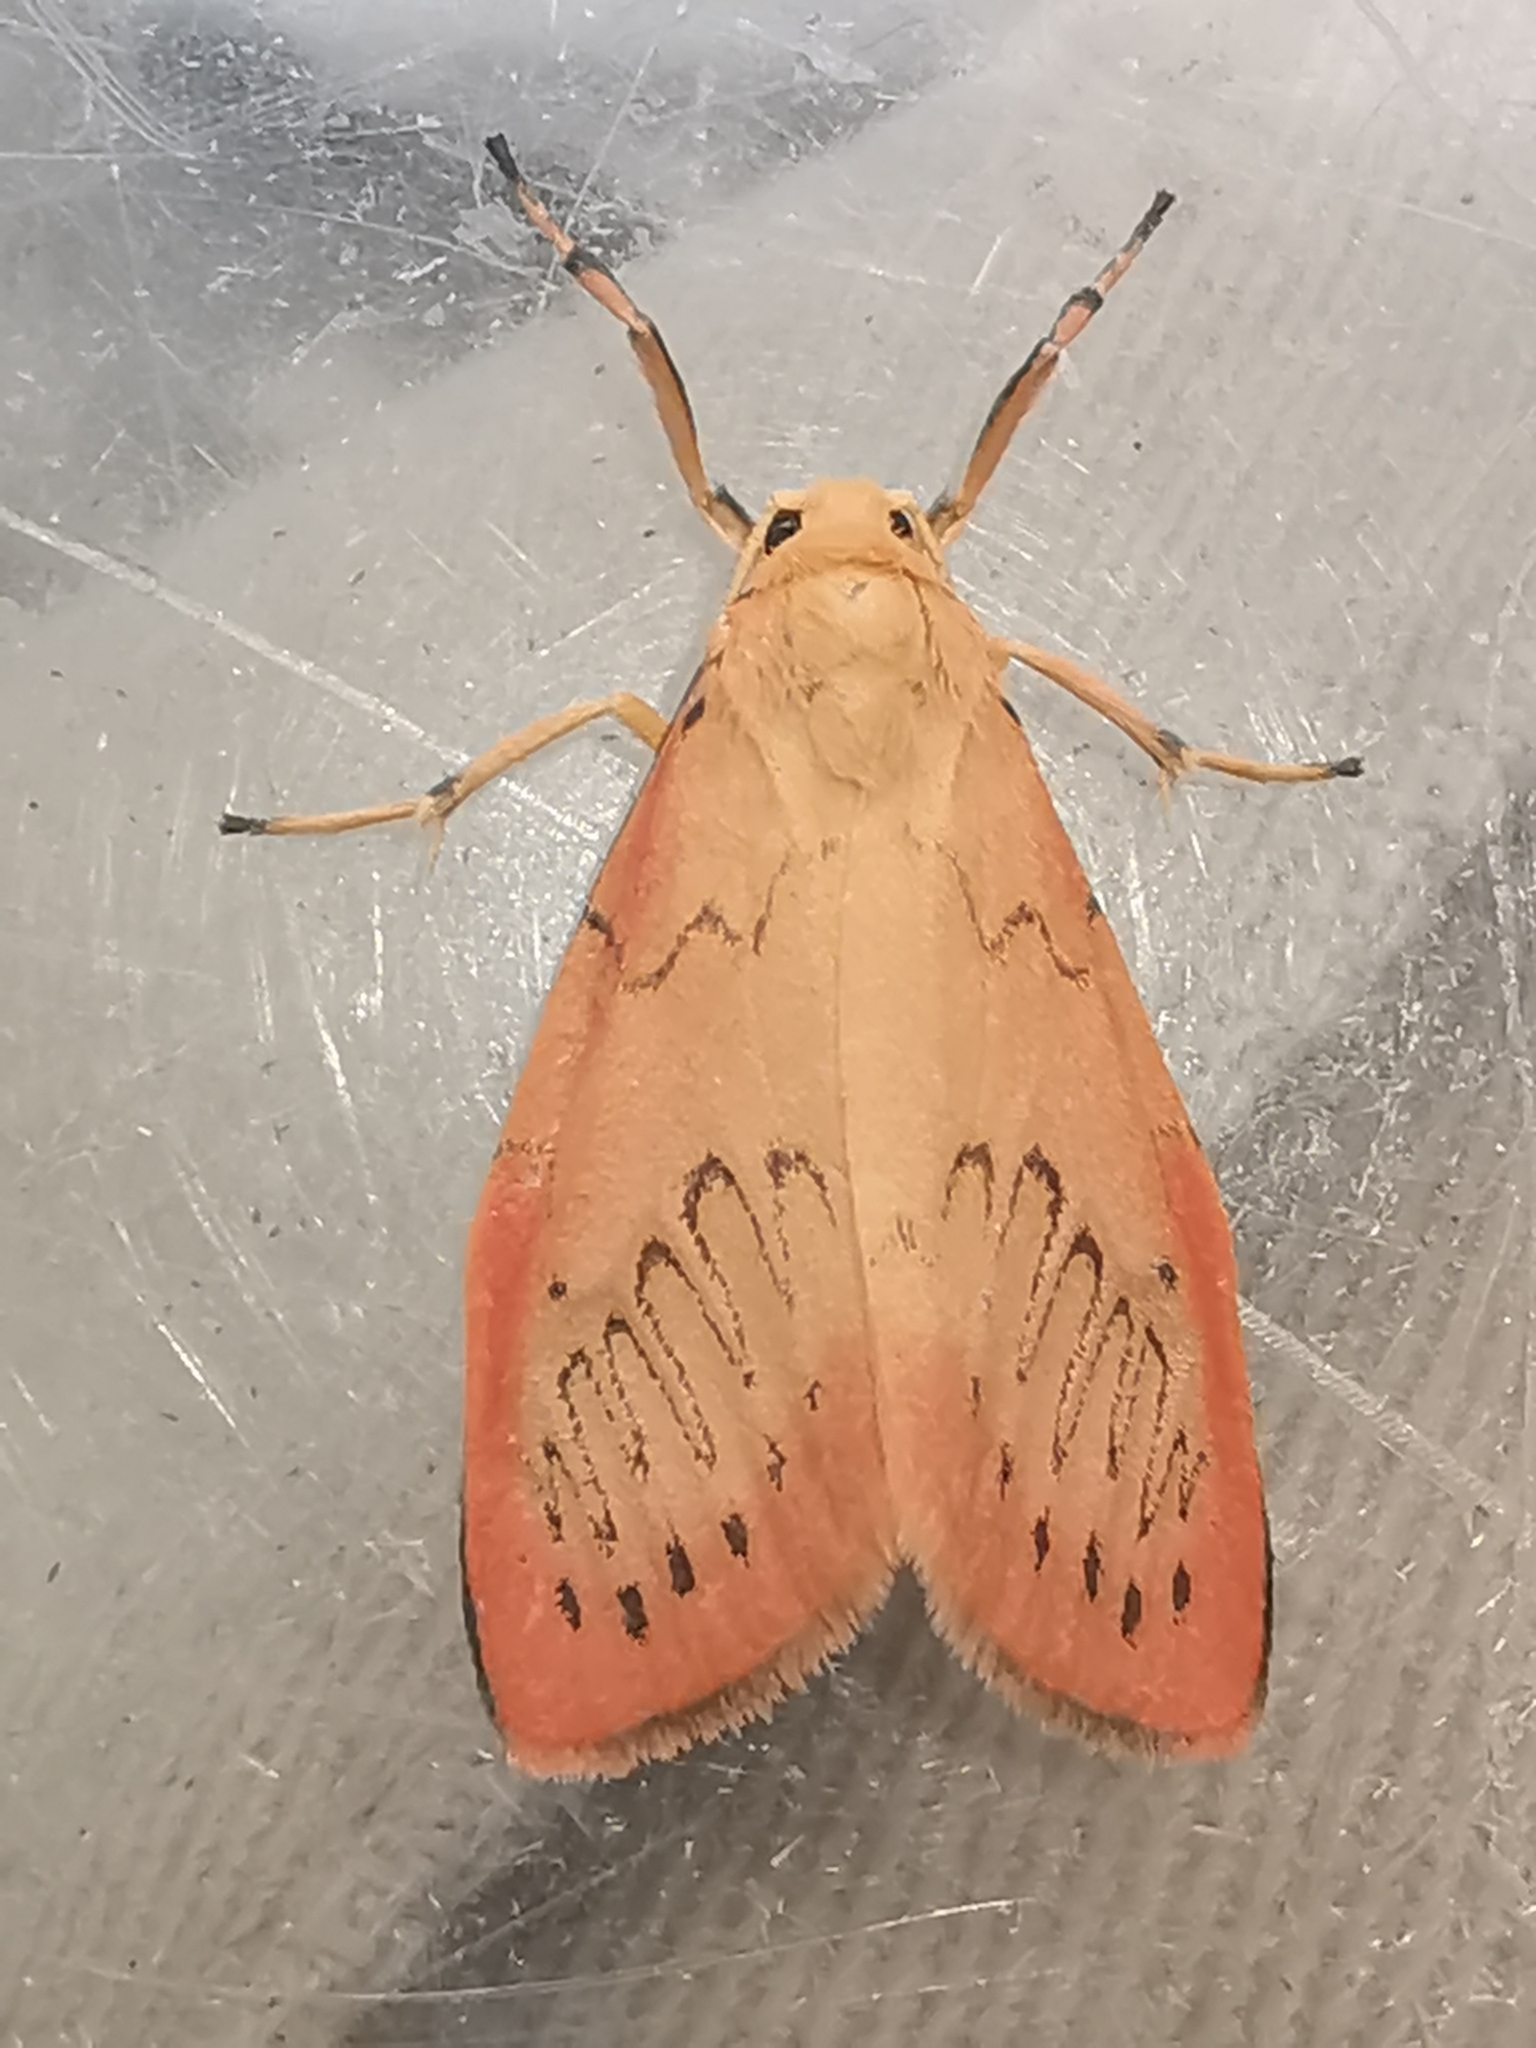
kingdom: Animalia
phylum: Arthropoda
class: Insecta
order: Lepidoptera
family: Erebidae
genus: Miltochrista
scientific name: Miltochrista miniata
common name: Rosy footman
